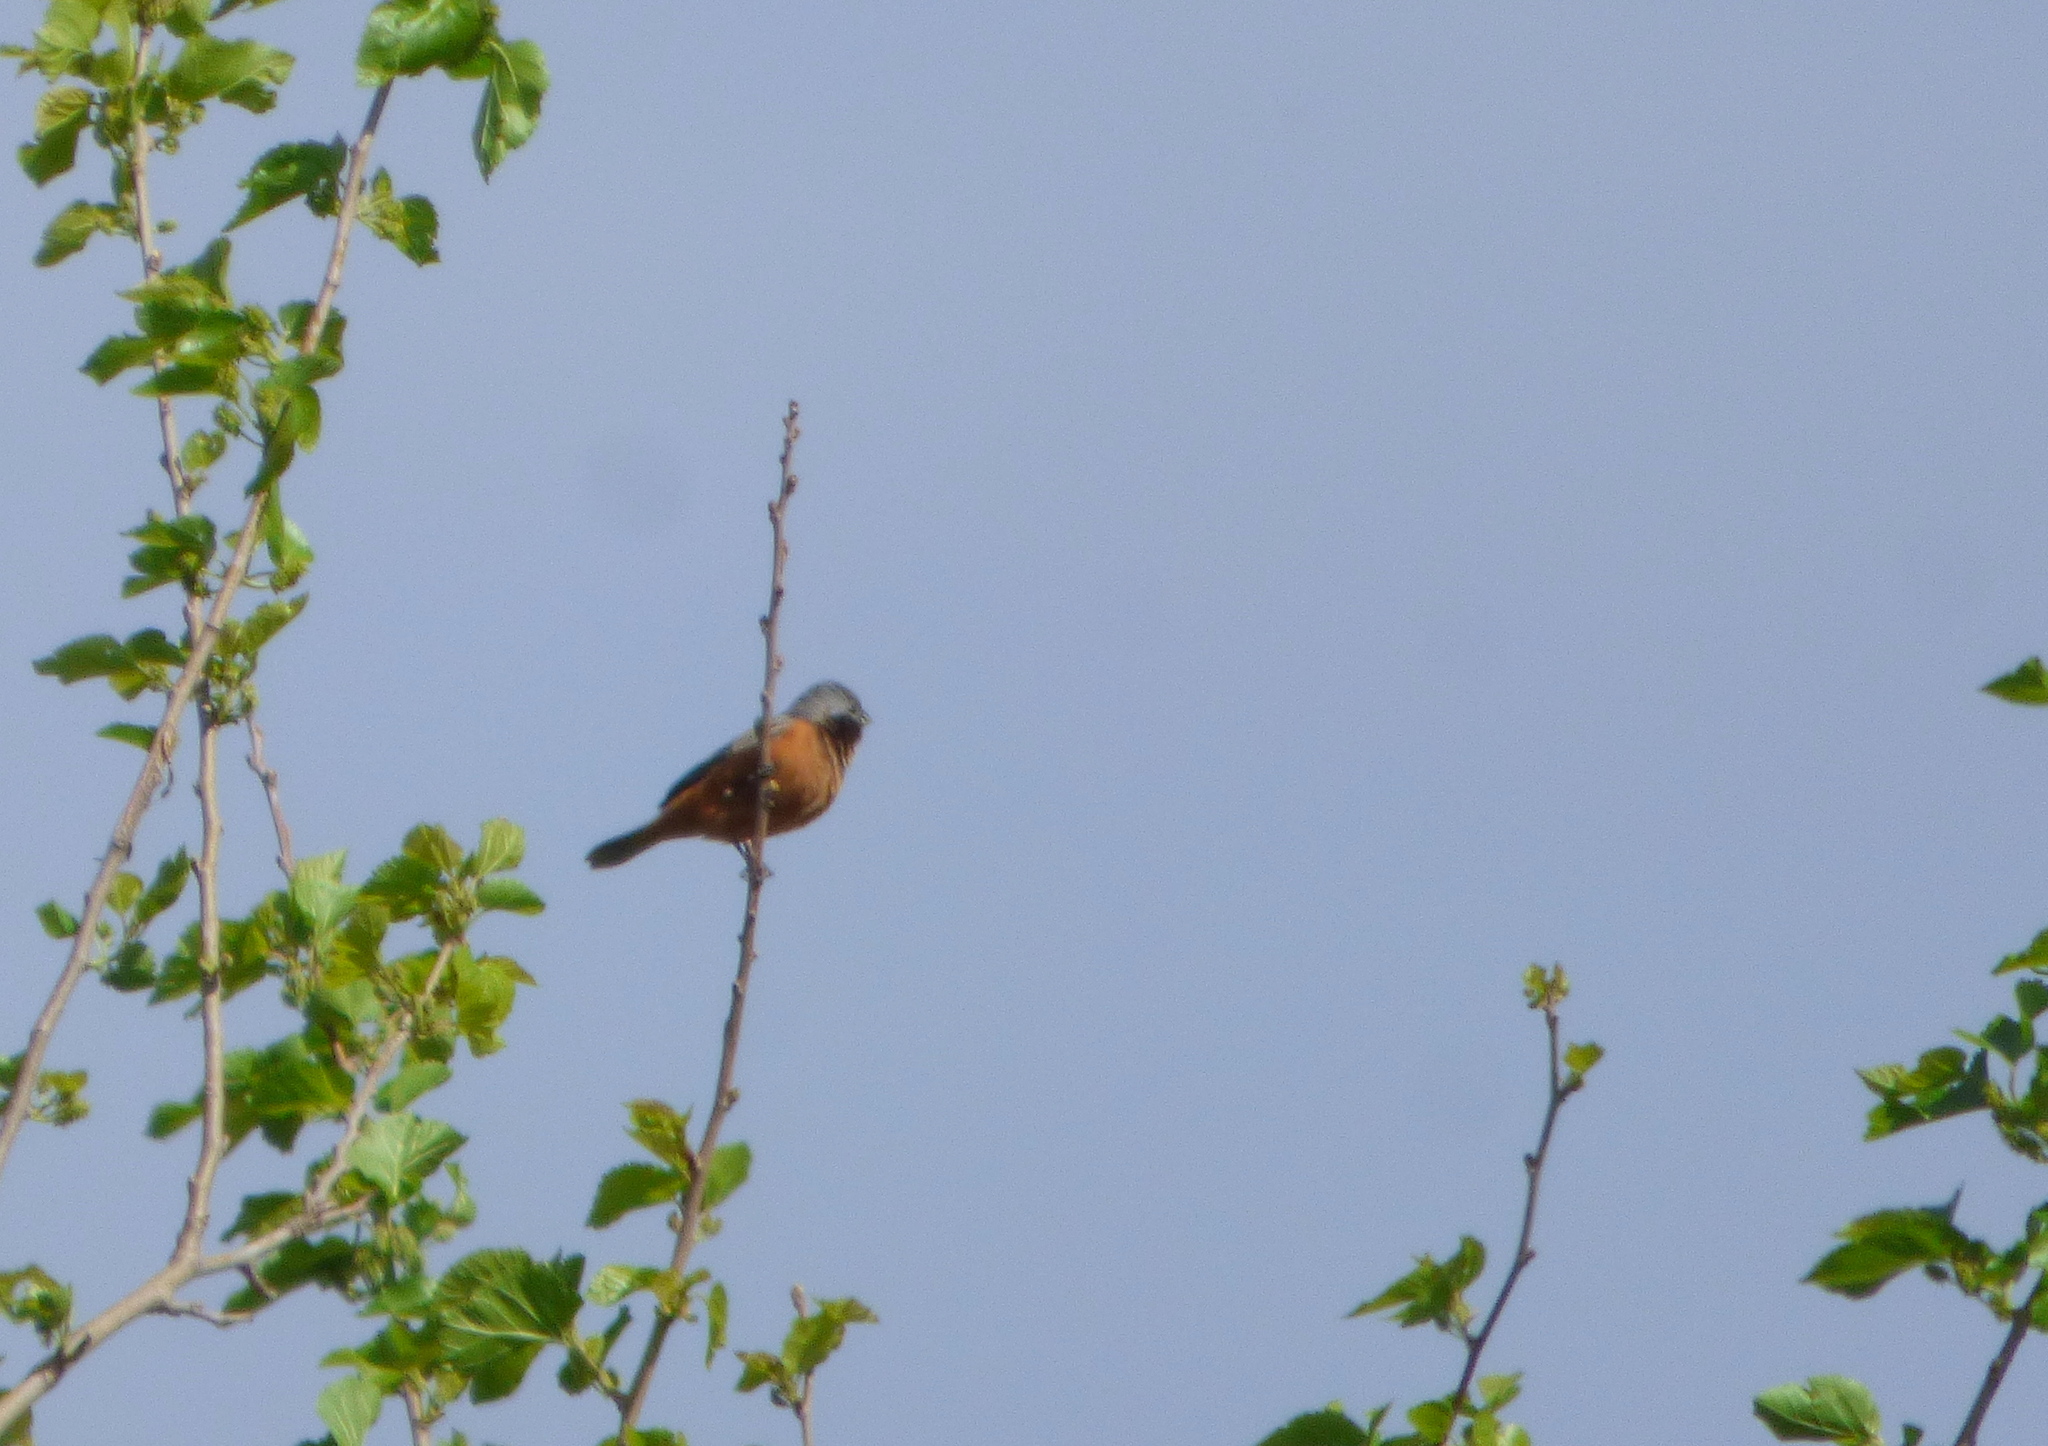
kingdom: Animalia
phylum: Chordata
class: Aves
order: Passeriformes
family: Thraupidae
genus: Sporophila
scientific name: Sporophila ruficollis
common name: Dark-throated seedeater
